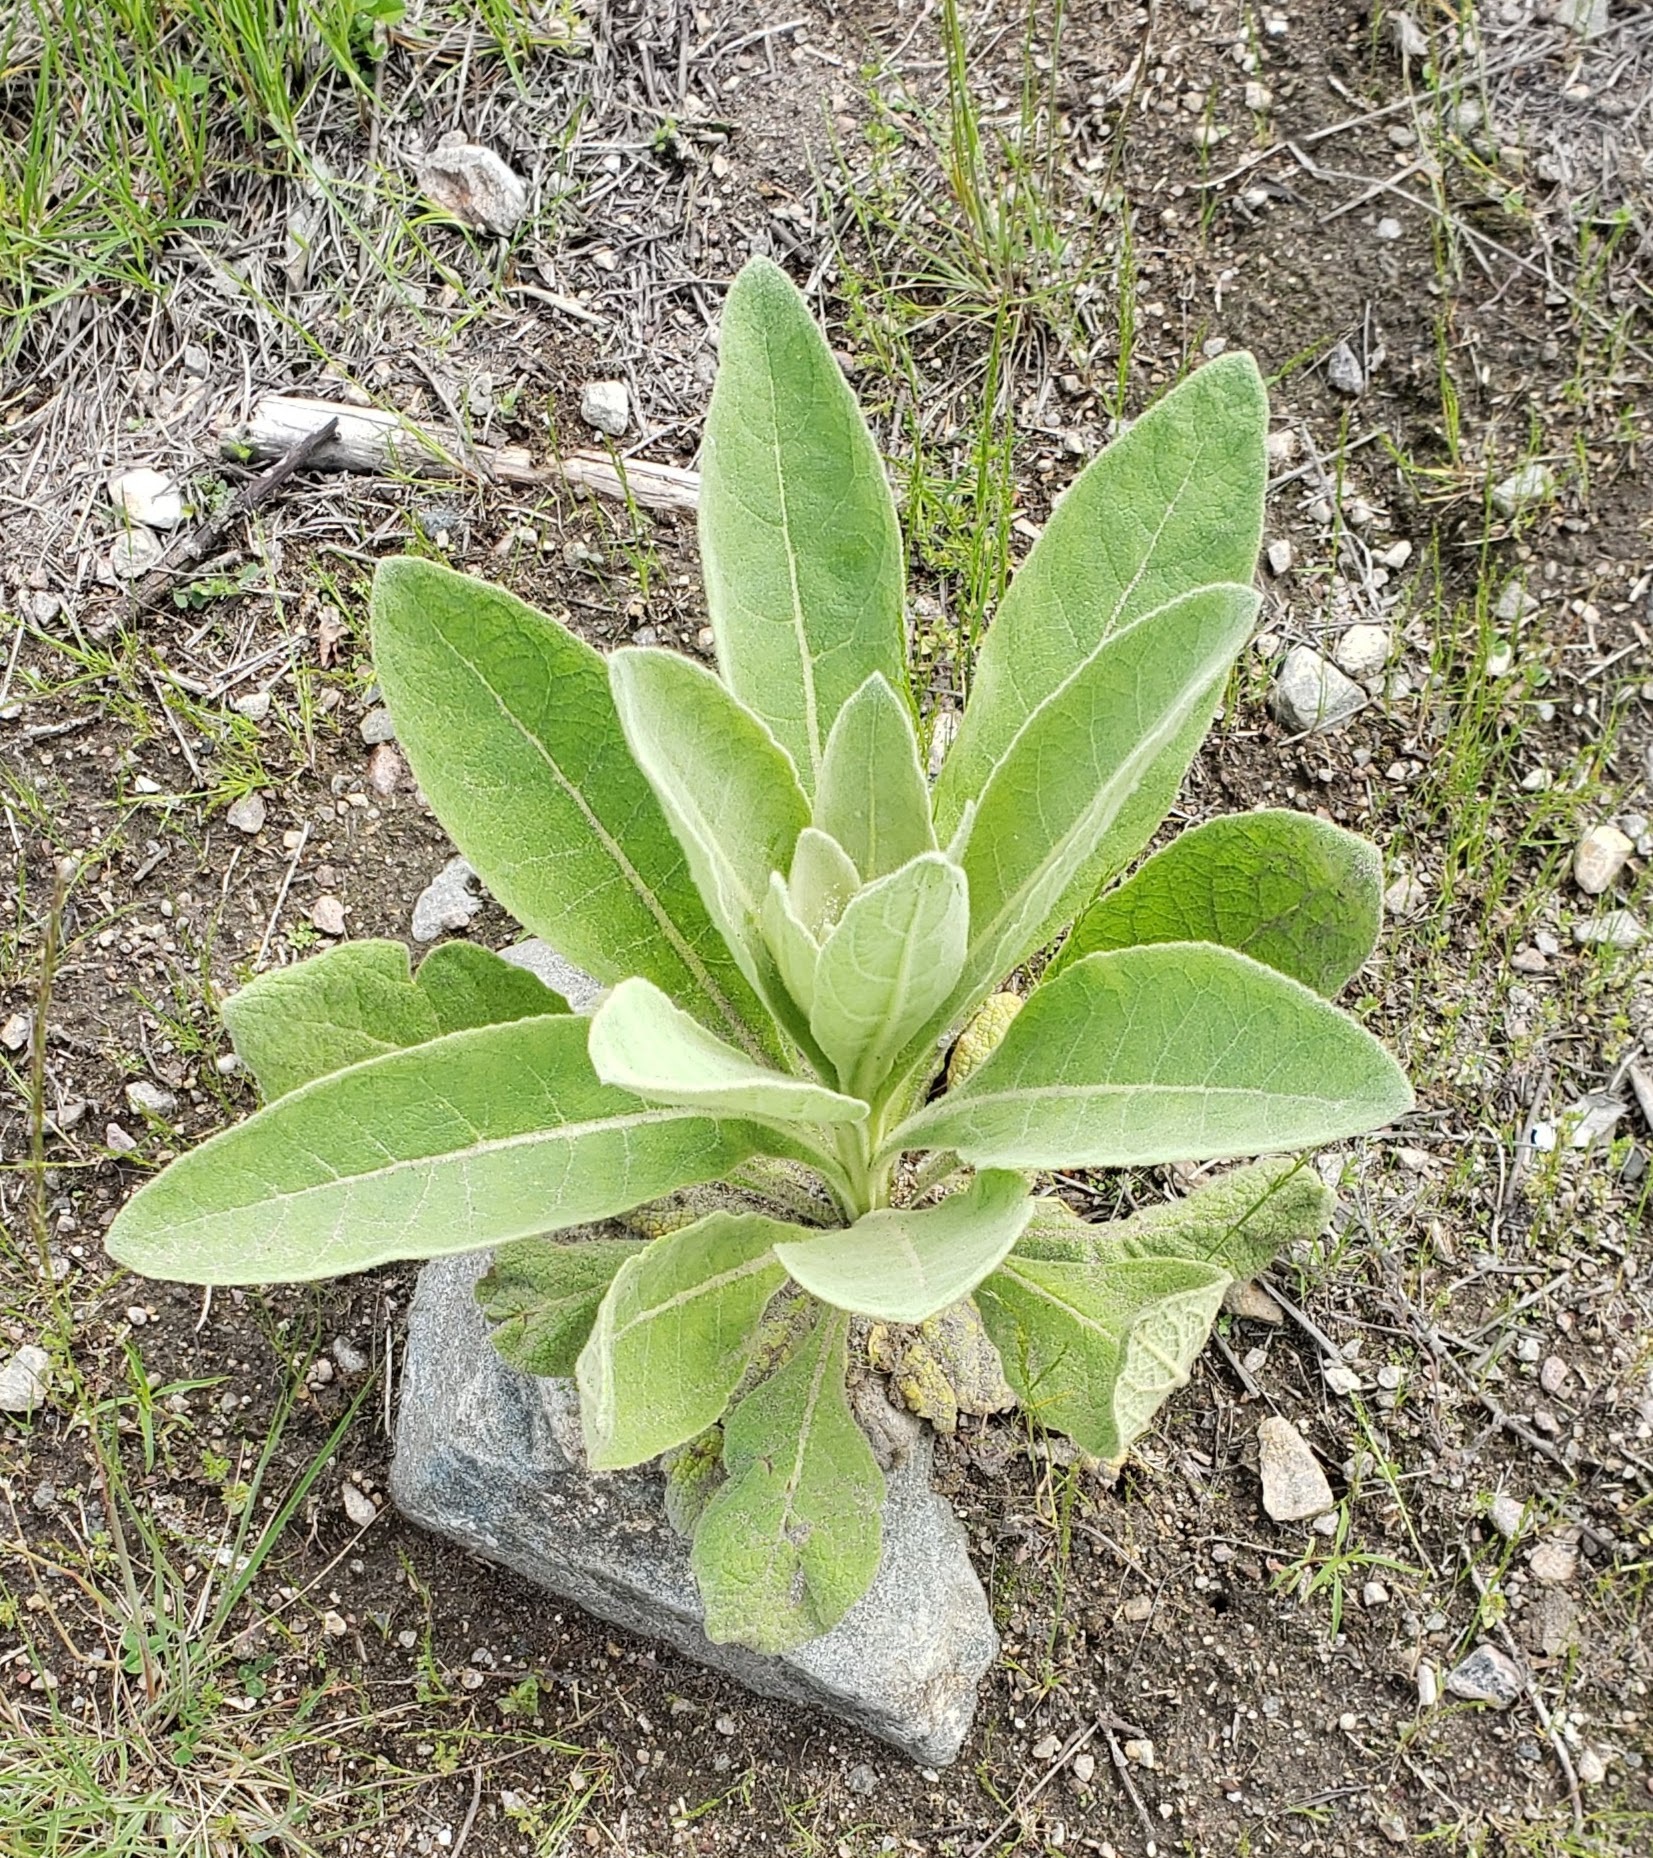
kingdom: Plantae
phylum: Tracheophyta
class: Magnoliopsida
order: Lamiales
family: Scrophulariaceae
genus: Verbascum
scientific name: Verbascum thapsus
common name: Common mullein
